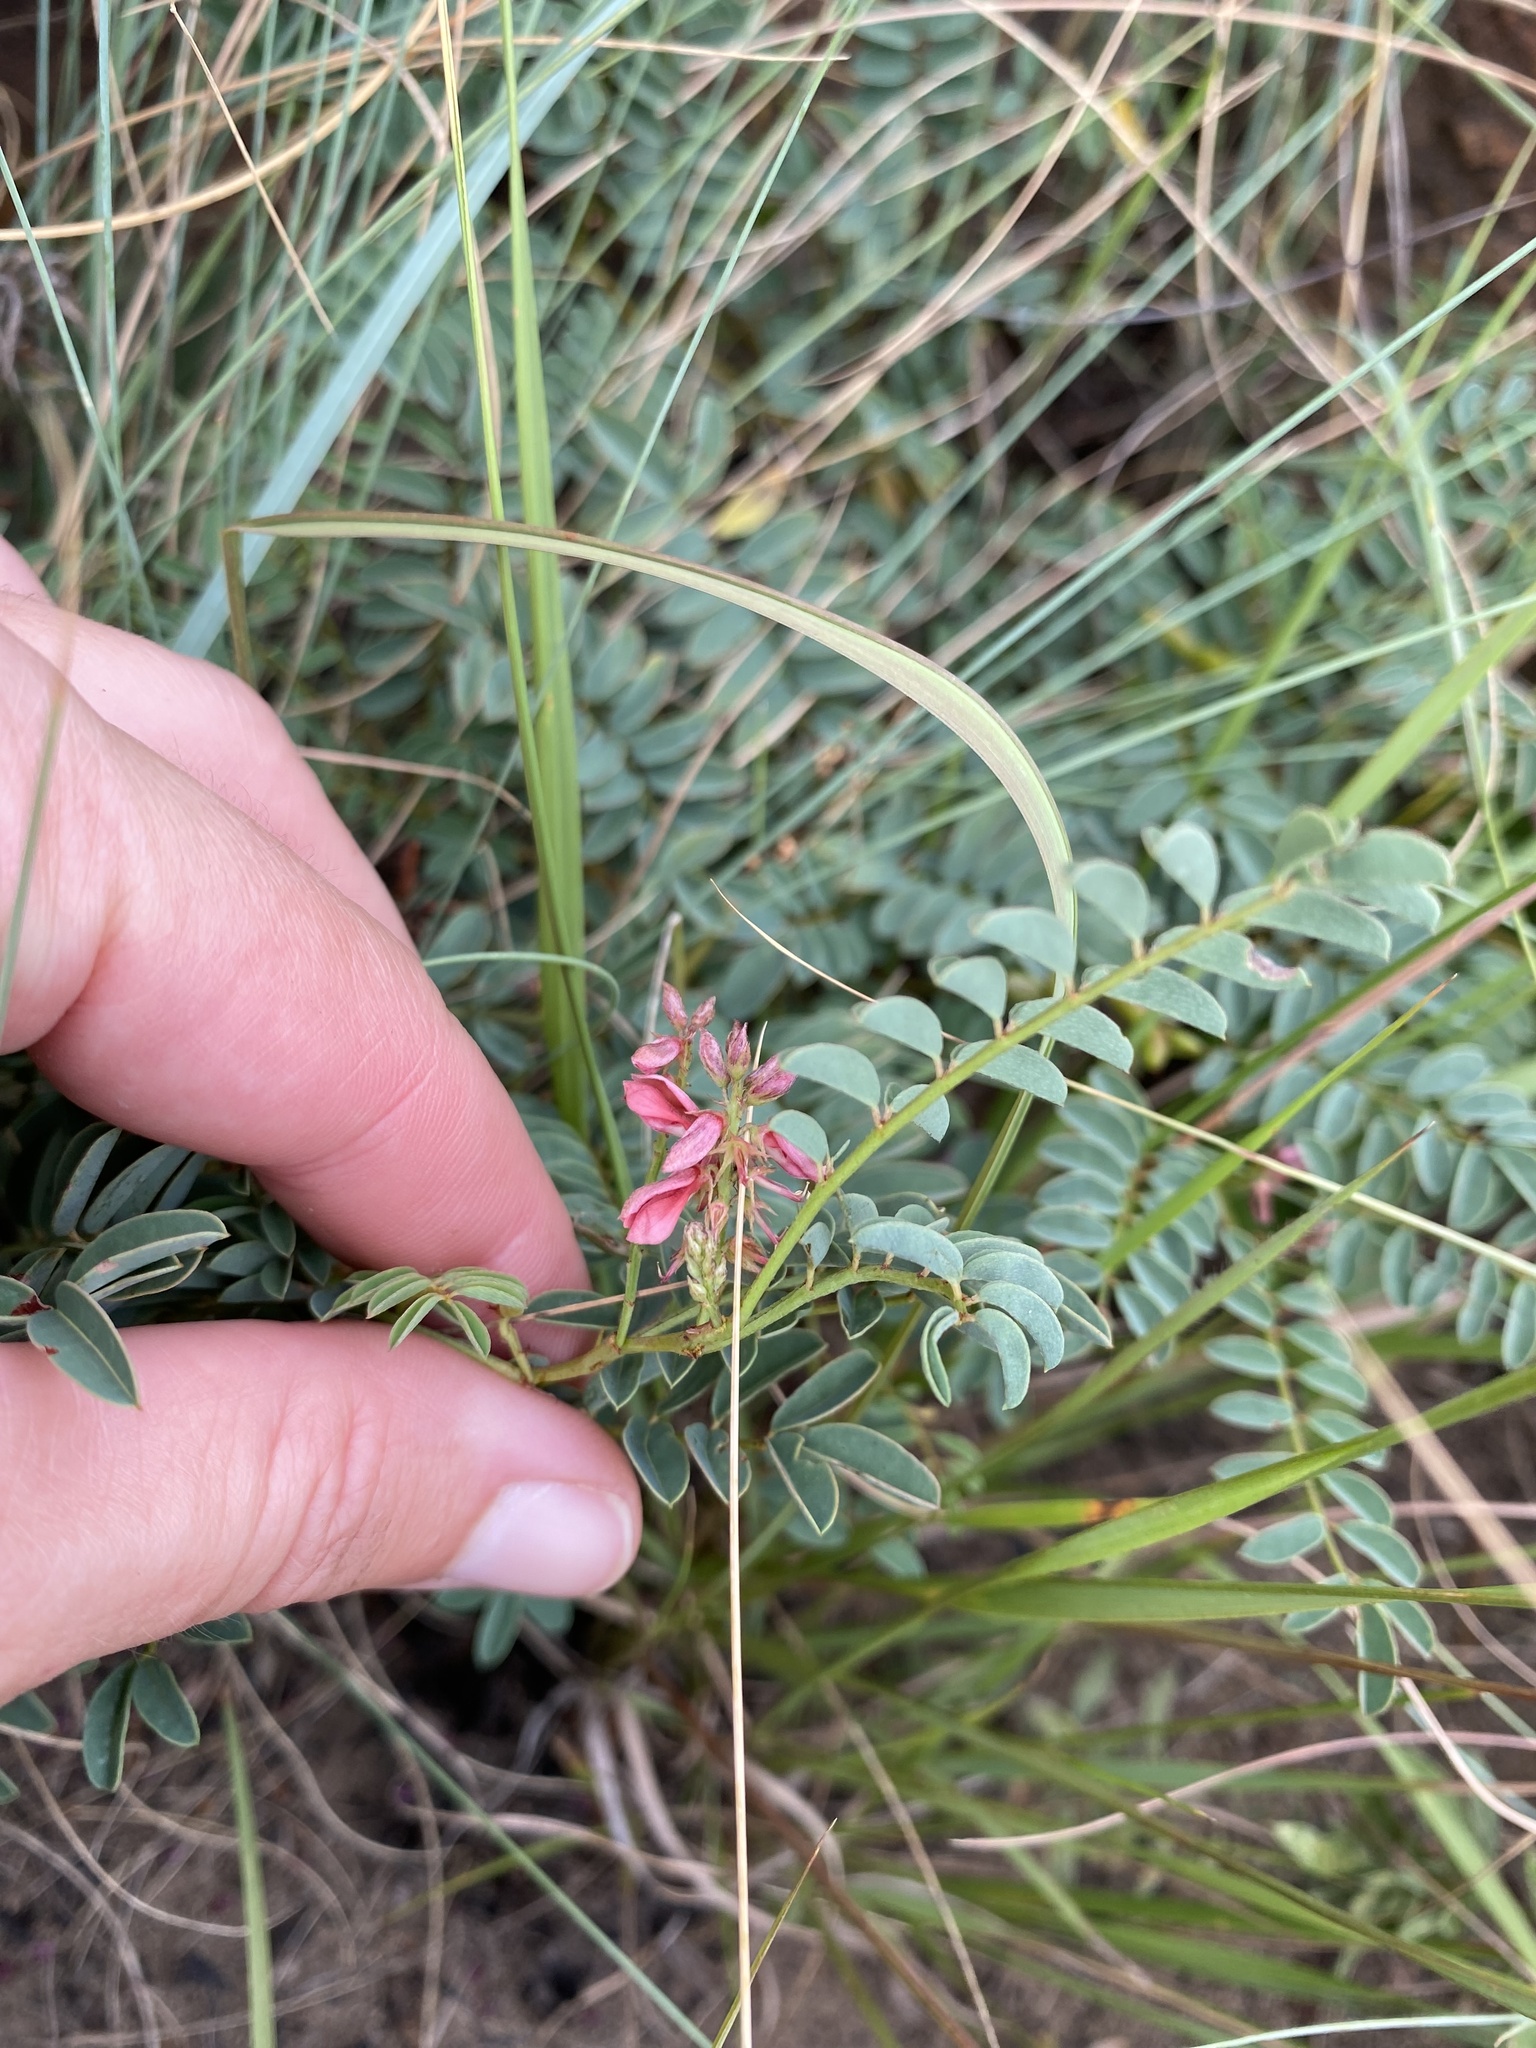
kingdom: Plantae
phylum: Tracheophyta
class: Magnoliopsida
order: Fabales
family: Fabaceae
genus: Indigofera
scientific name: Indigofera williamsonii
